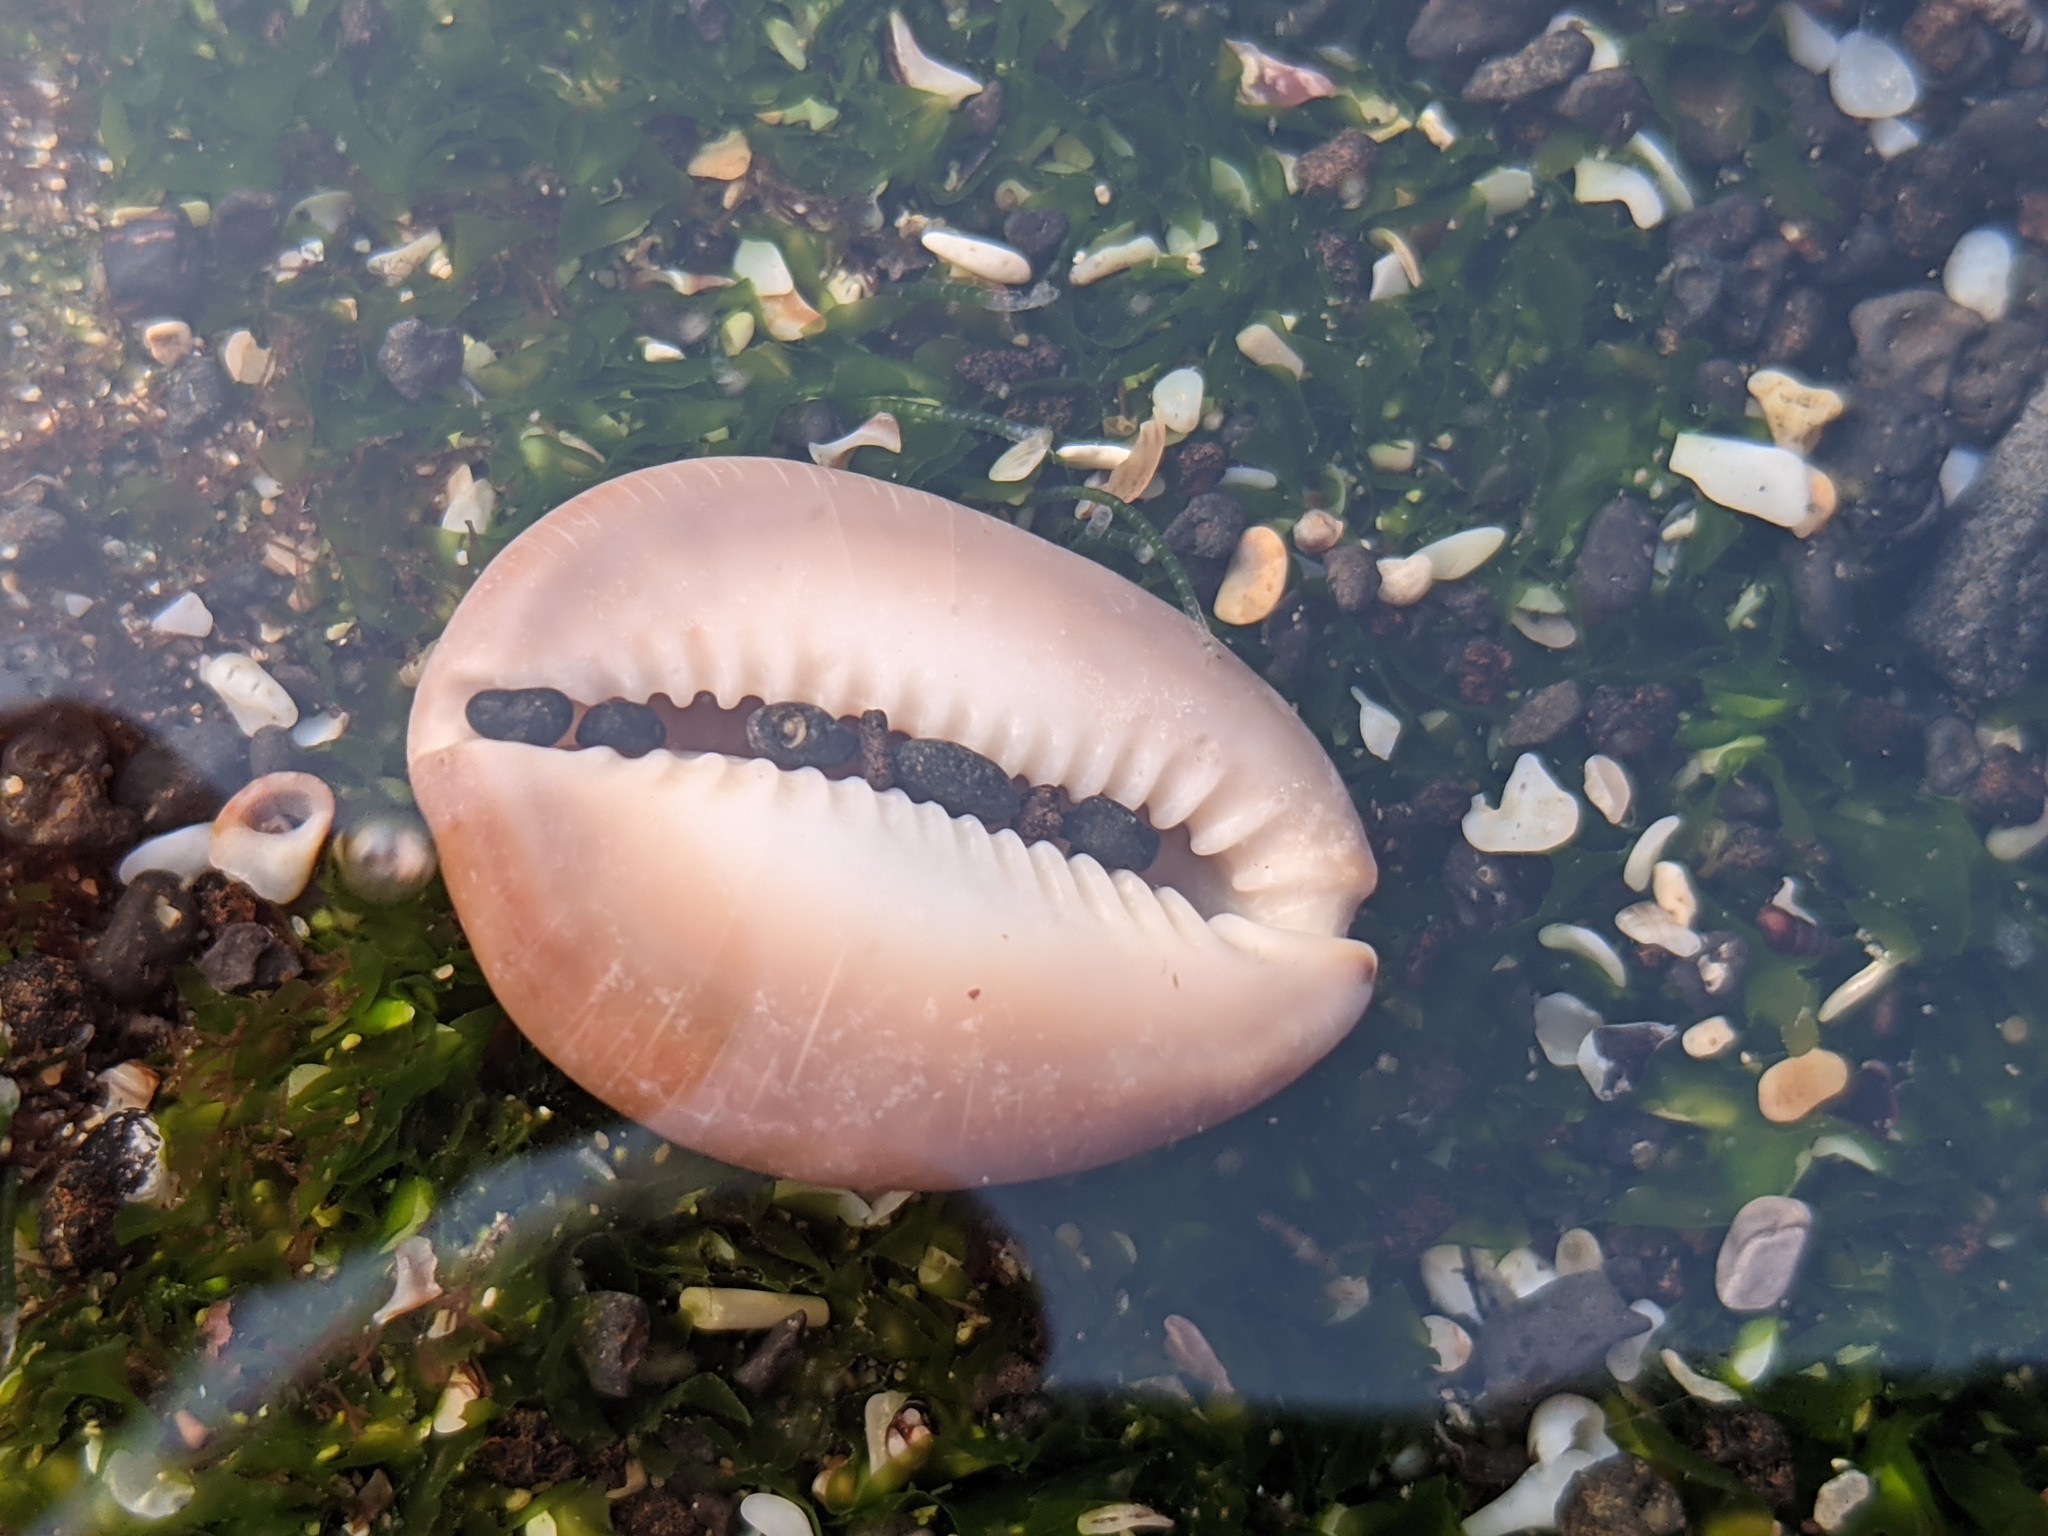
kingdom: Animalia
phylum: Mollusca
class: Gastropoda
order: Littorinimorpha
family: Cypraeidae
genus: Monetaria
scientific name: Monetaria caputophidii
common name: Snake's head cowry
